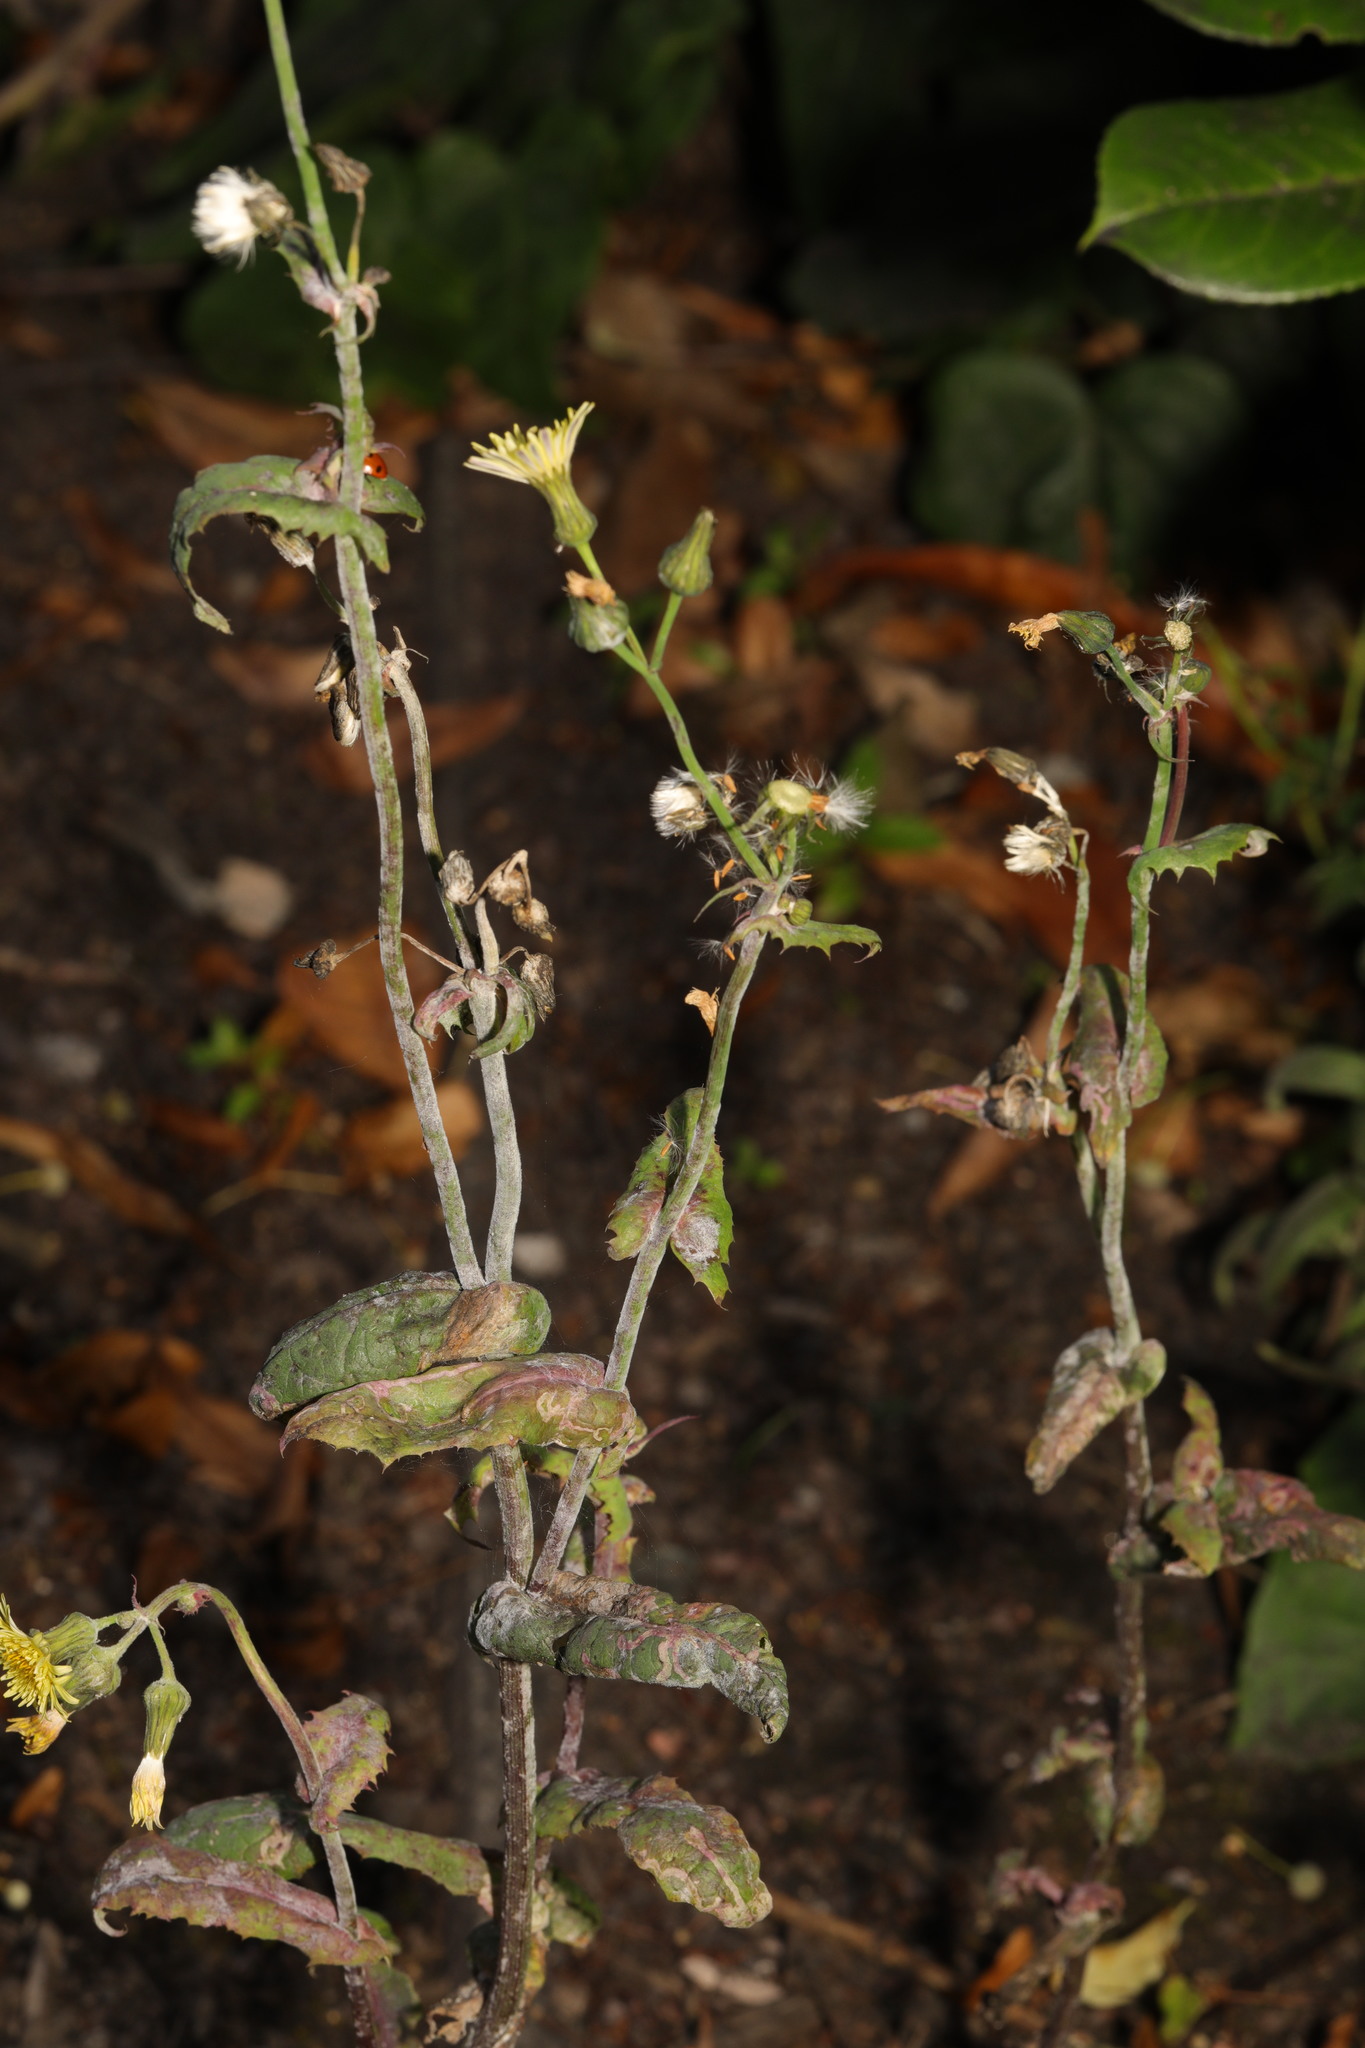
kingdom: Plantae
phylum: Tracheophyta
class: Magnoliopsida
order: Asterales
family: Asteraceae
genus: Sonchus
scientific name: Sonchus oleraceus
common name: Common sowthistle
